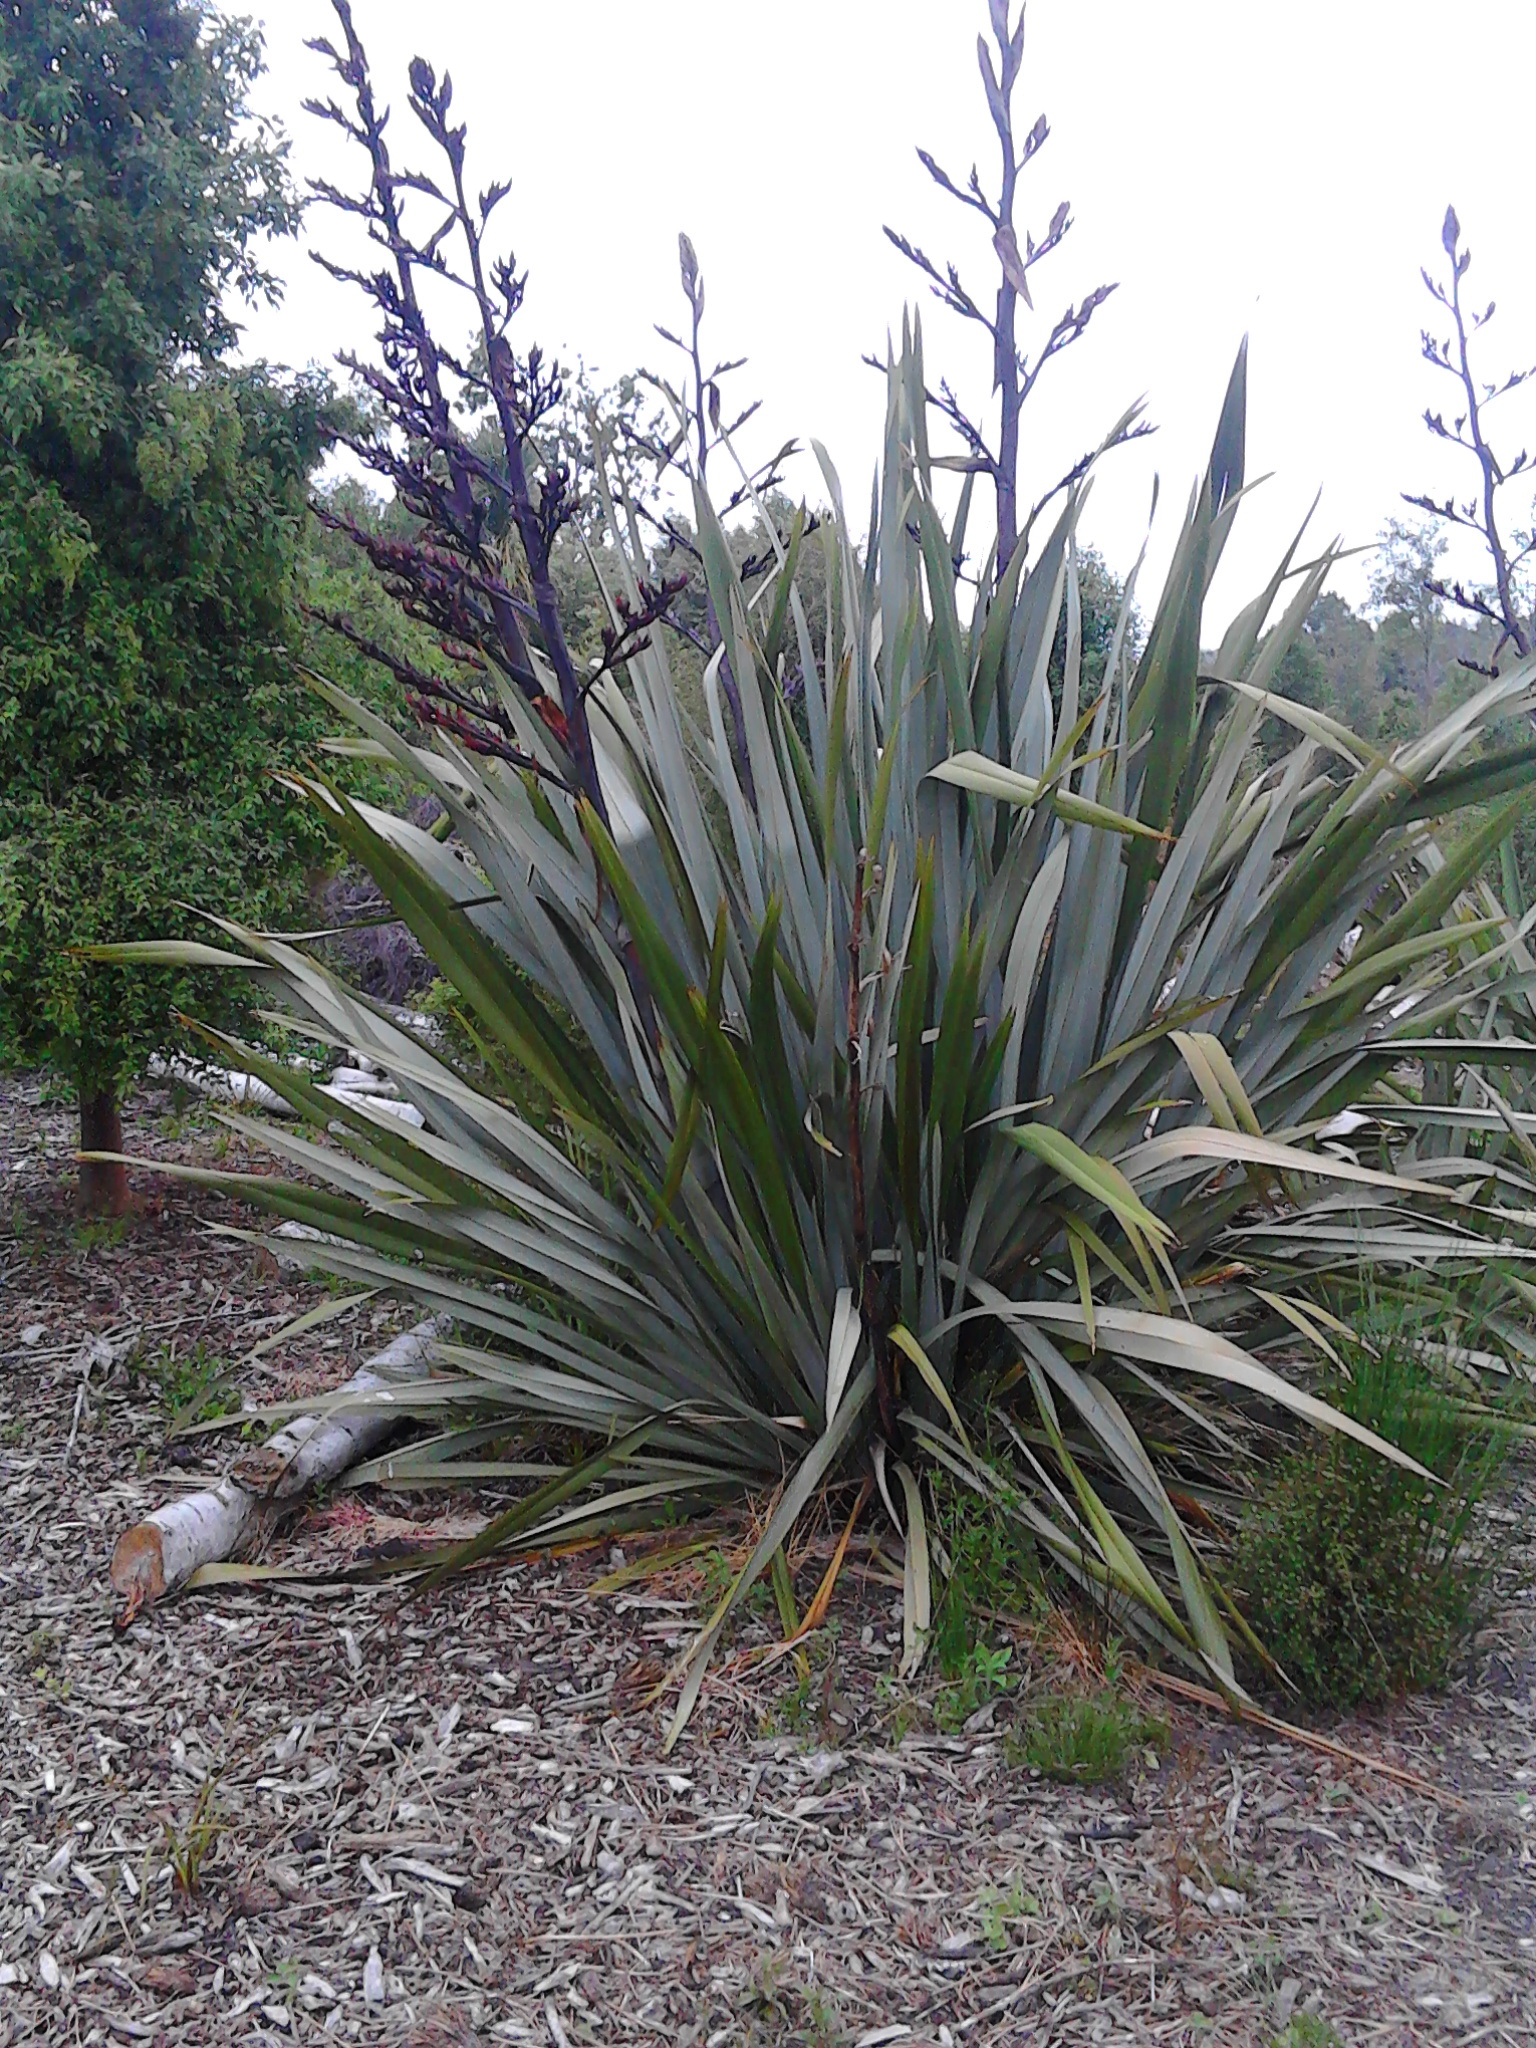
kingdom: Plantae
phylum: Tracheophyta
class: Liliopsida
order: Asparagales
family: Asphodelaceae
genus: Phormium
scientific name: Phormium tenax
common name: New zealand flax
